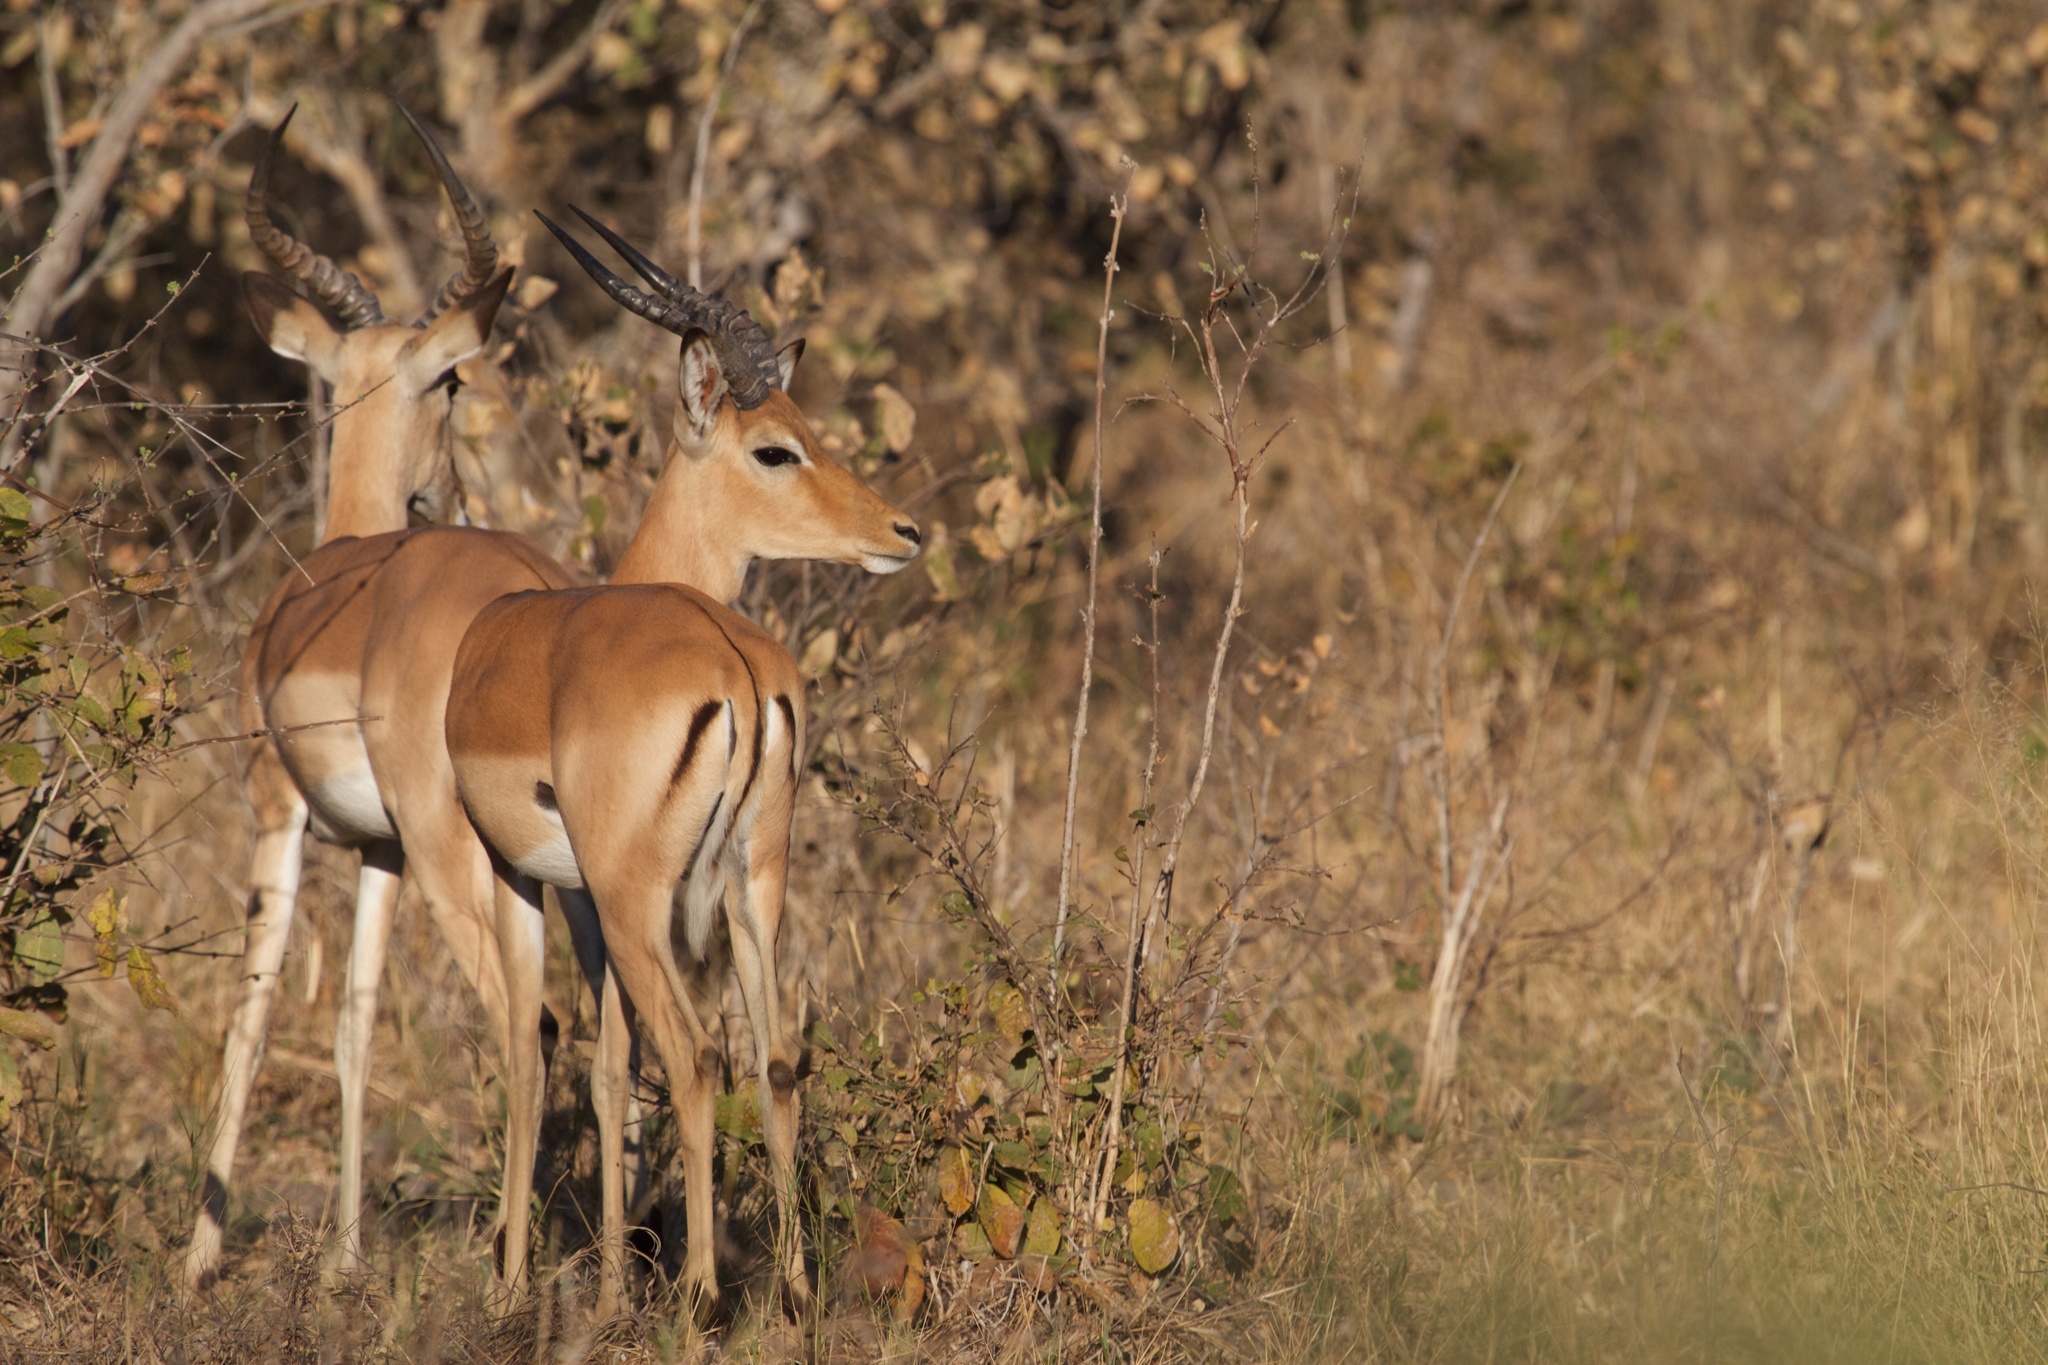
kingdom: Animalia
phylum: Chordata
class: Mammalia
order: Artiodactyla
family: Bovidae
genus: Aepyceros
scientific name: Aepyceros melampus
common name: Impala
